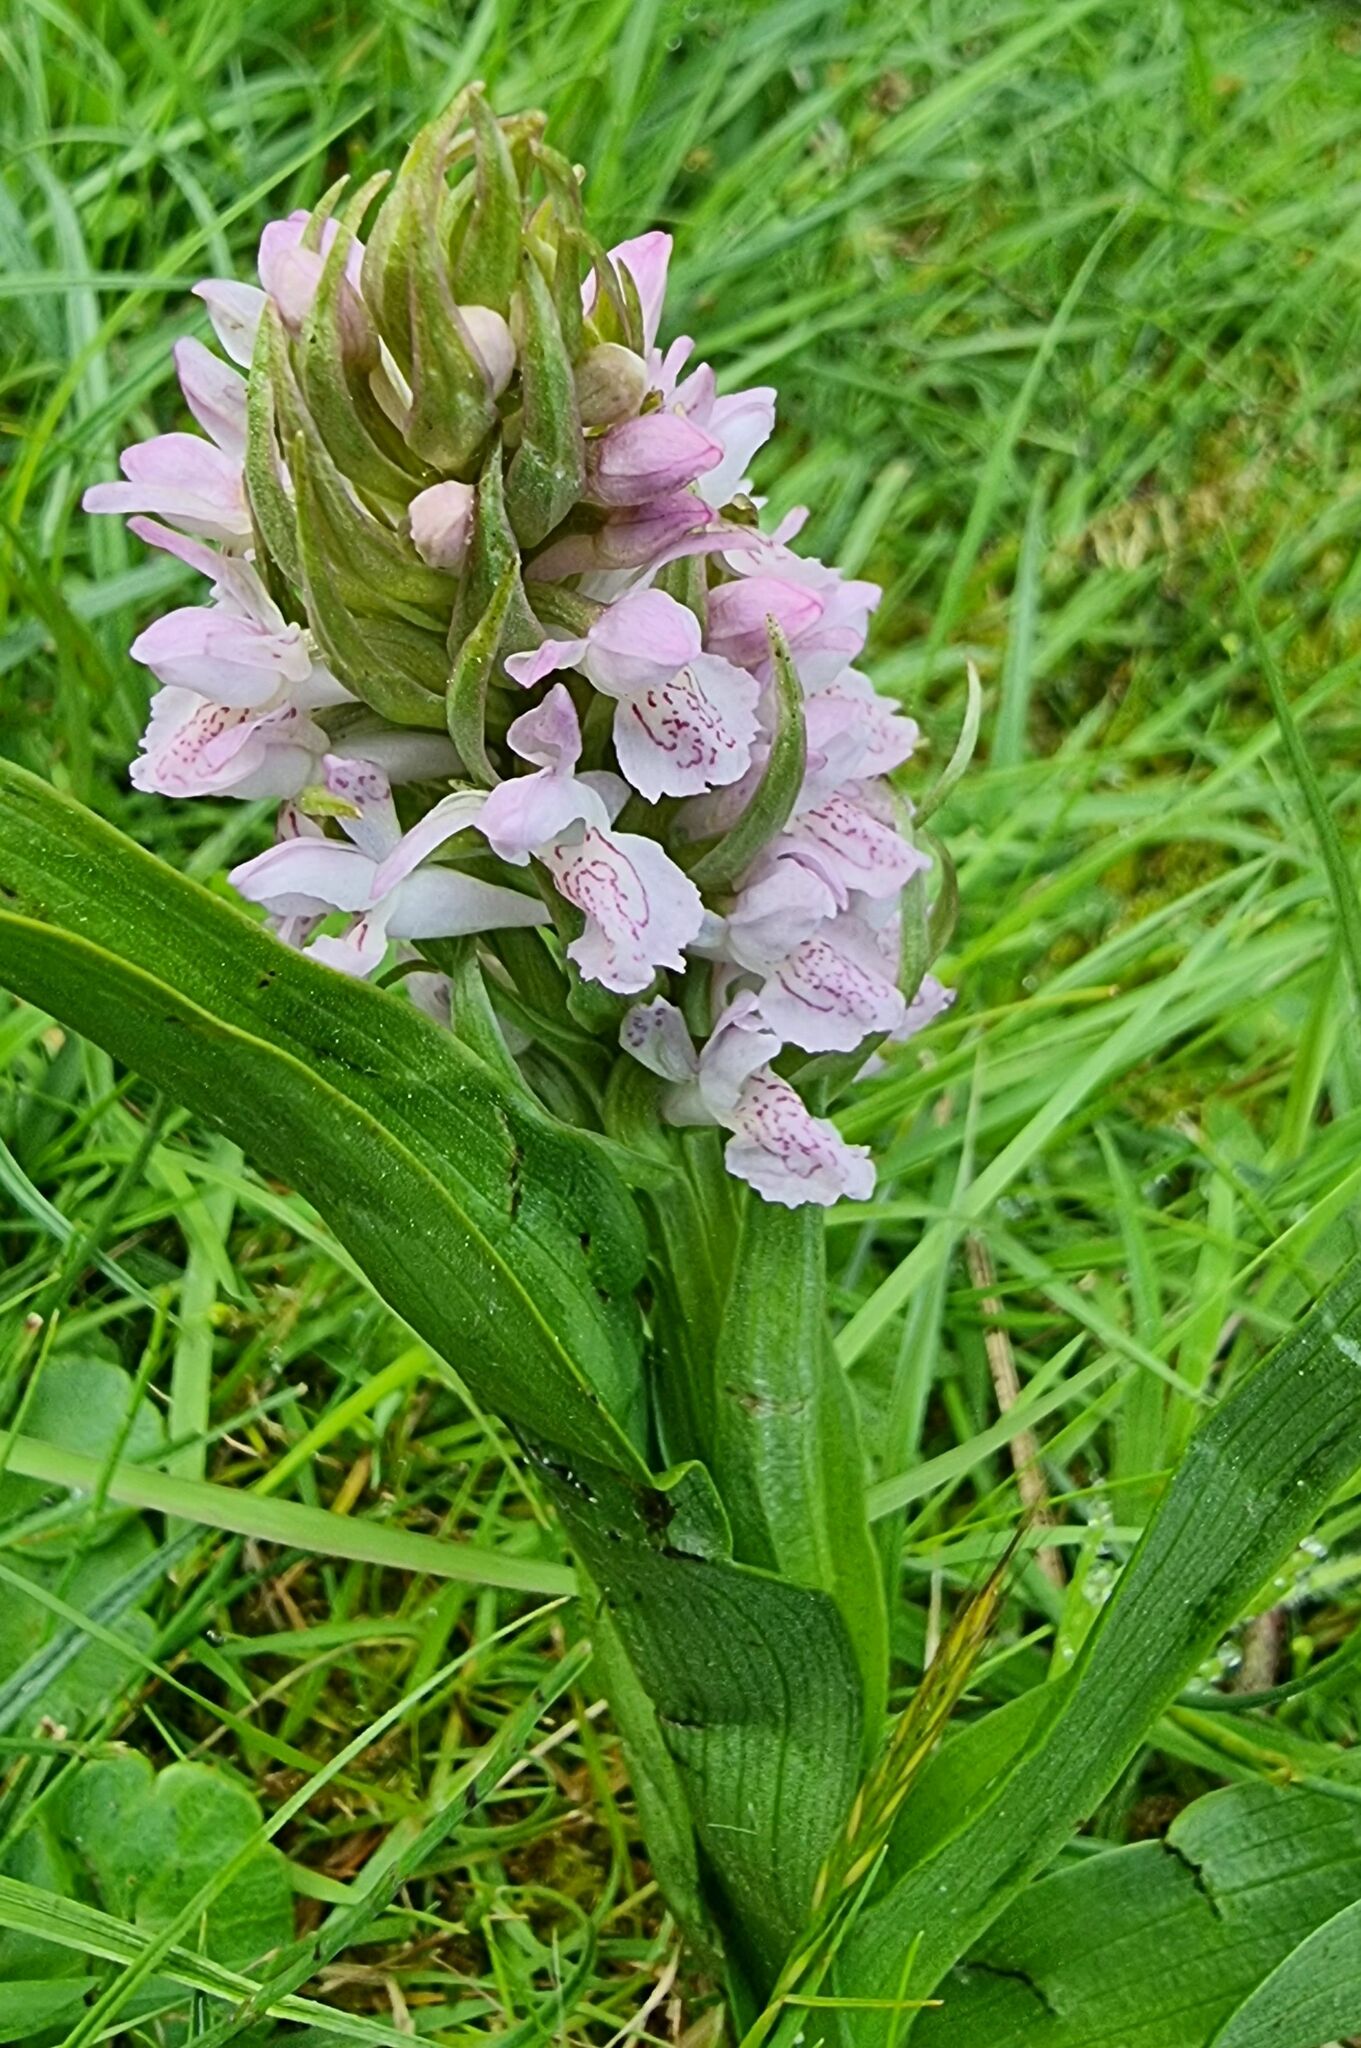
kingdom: Plantae
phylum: Tracheophyta
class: Liliopsida
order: Asparagales
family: Orchidaceae
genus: Dactylorhiza
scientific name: Dactylorhiza incarnata
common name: Early marsh-orchid
